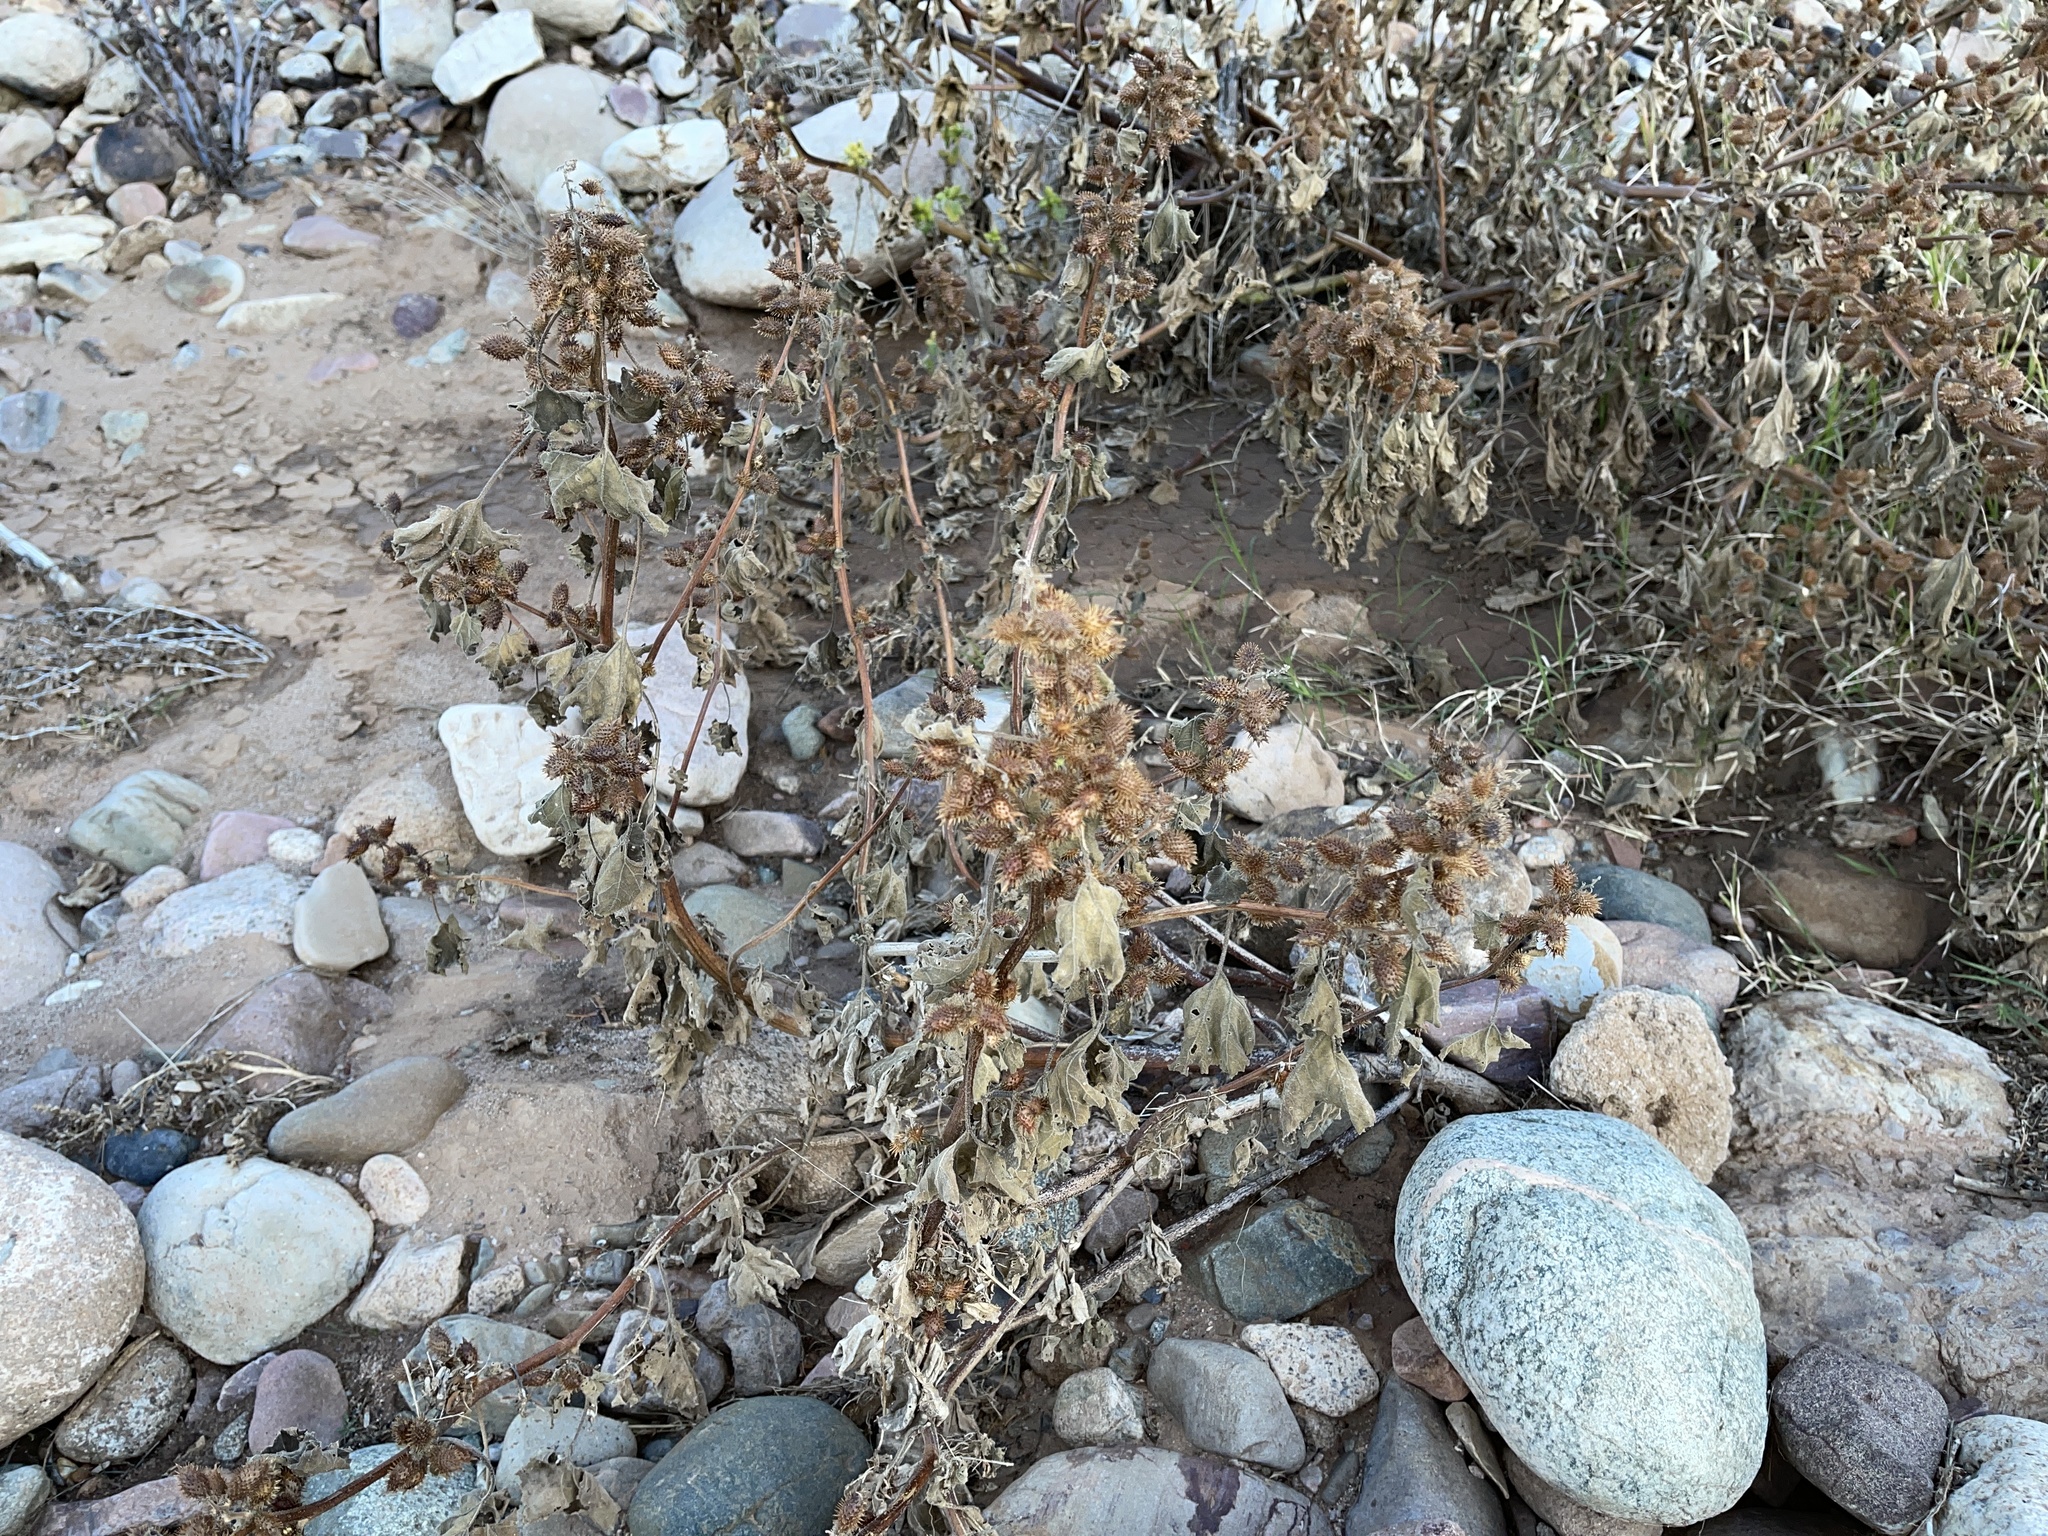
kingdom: Plantae
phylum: Tracheophyta
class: Magnoliopsida
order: Asterales
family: Asteraceae
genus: Xanthium
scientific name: Xanthium strumarium
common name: Rough cocklebur
